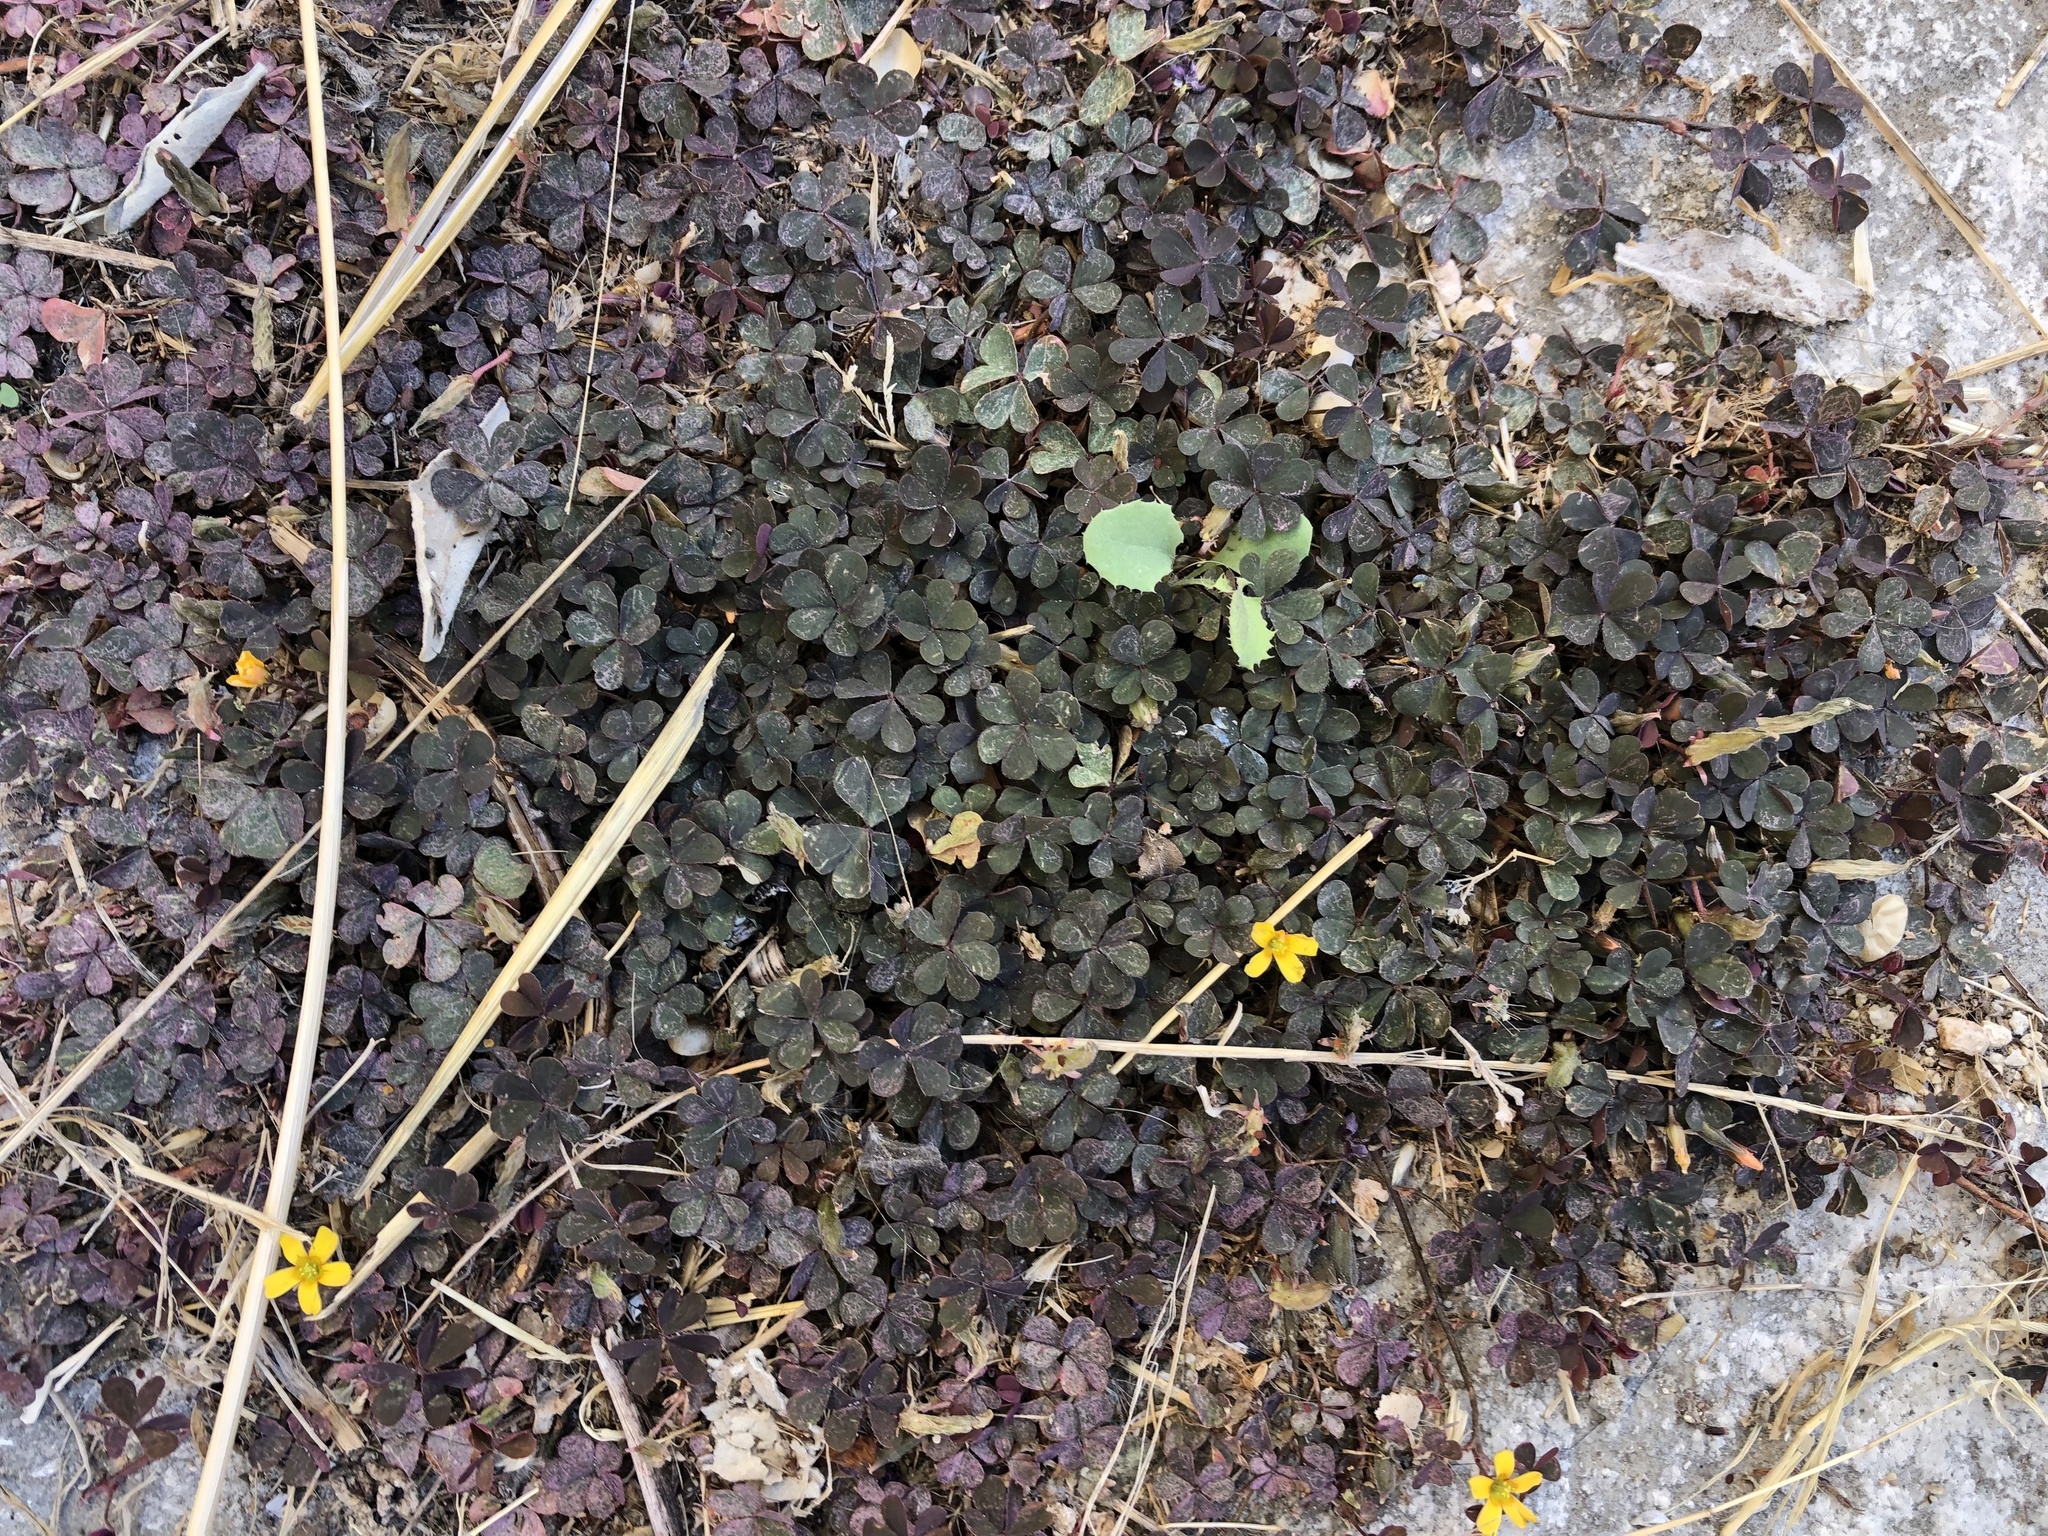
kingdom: Plantae
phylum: Tracheophyta
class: Magnoliopsida
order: Oxalidales
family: Oxalidaceae
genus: Oxalis
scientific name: Oxalis corniculata
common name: Procumbent yellow-sorrel
